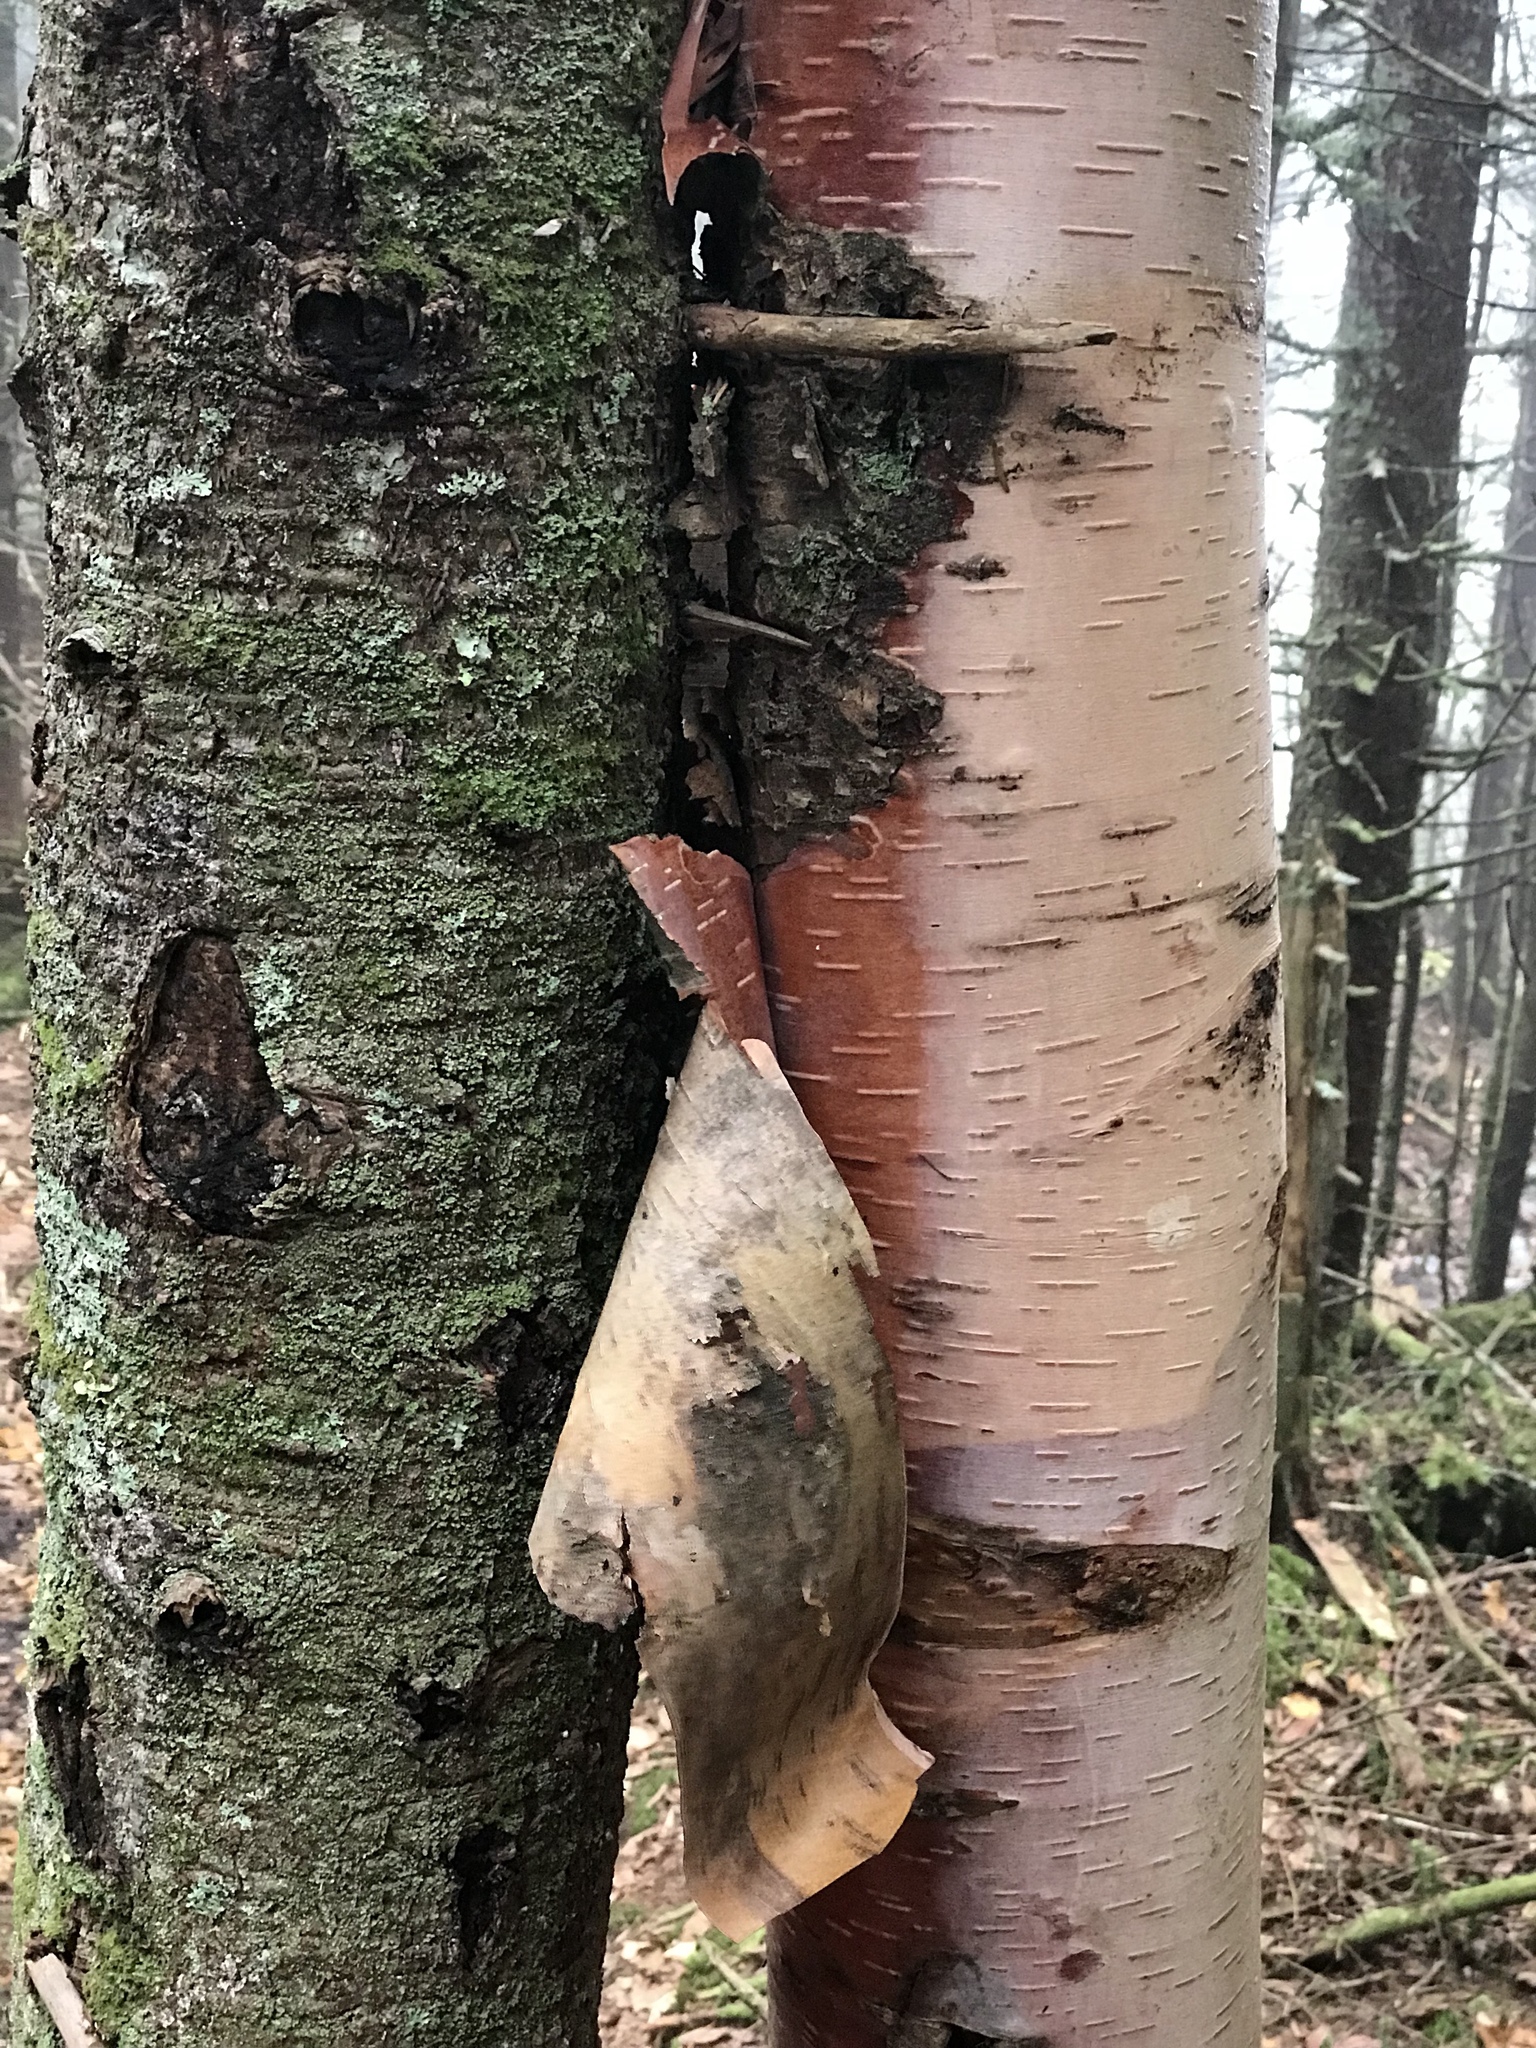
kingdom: Plantae
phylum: Tracheophyta
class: Pinopsida
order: Pinales
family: Pinaceae
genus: Abies
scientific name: Abies balsamea
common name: Balsam fir
